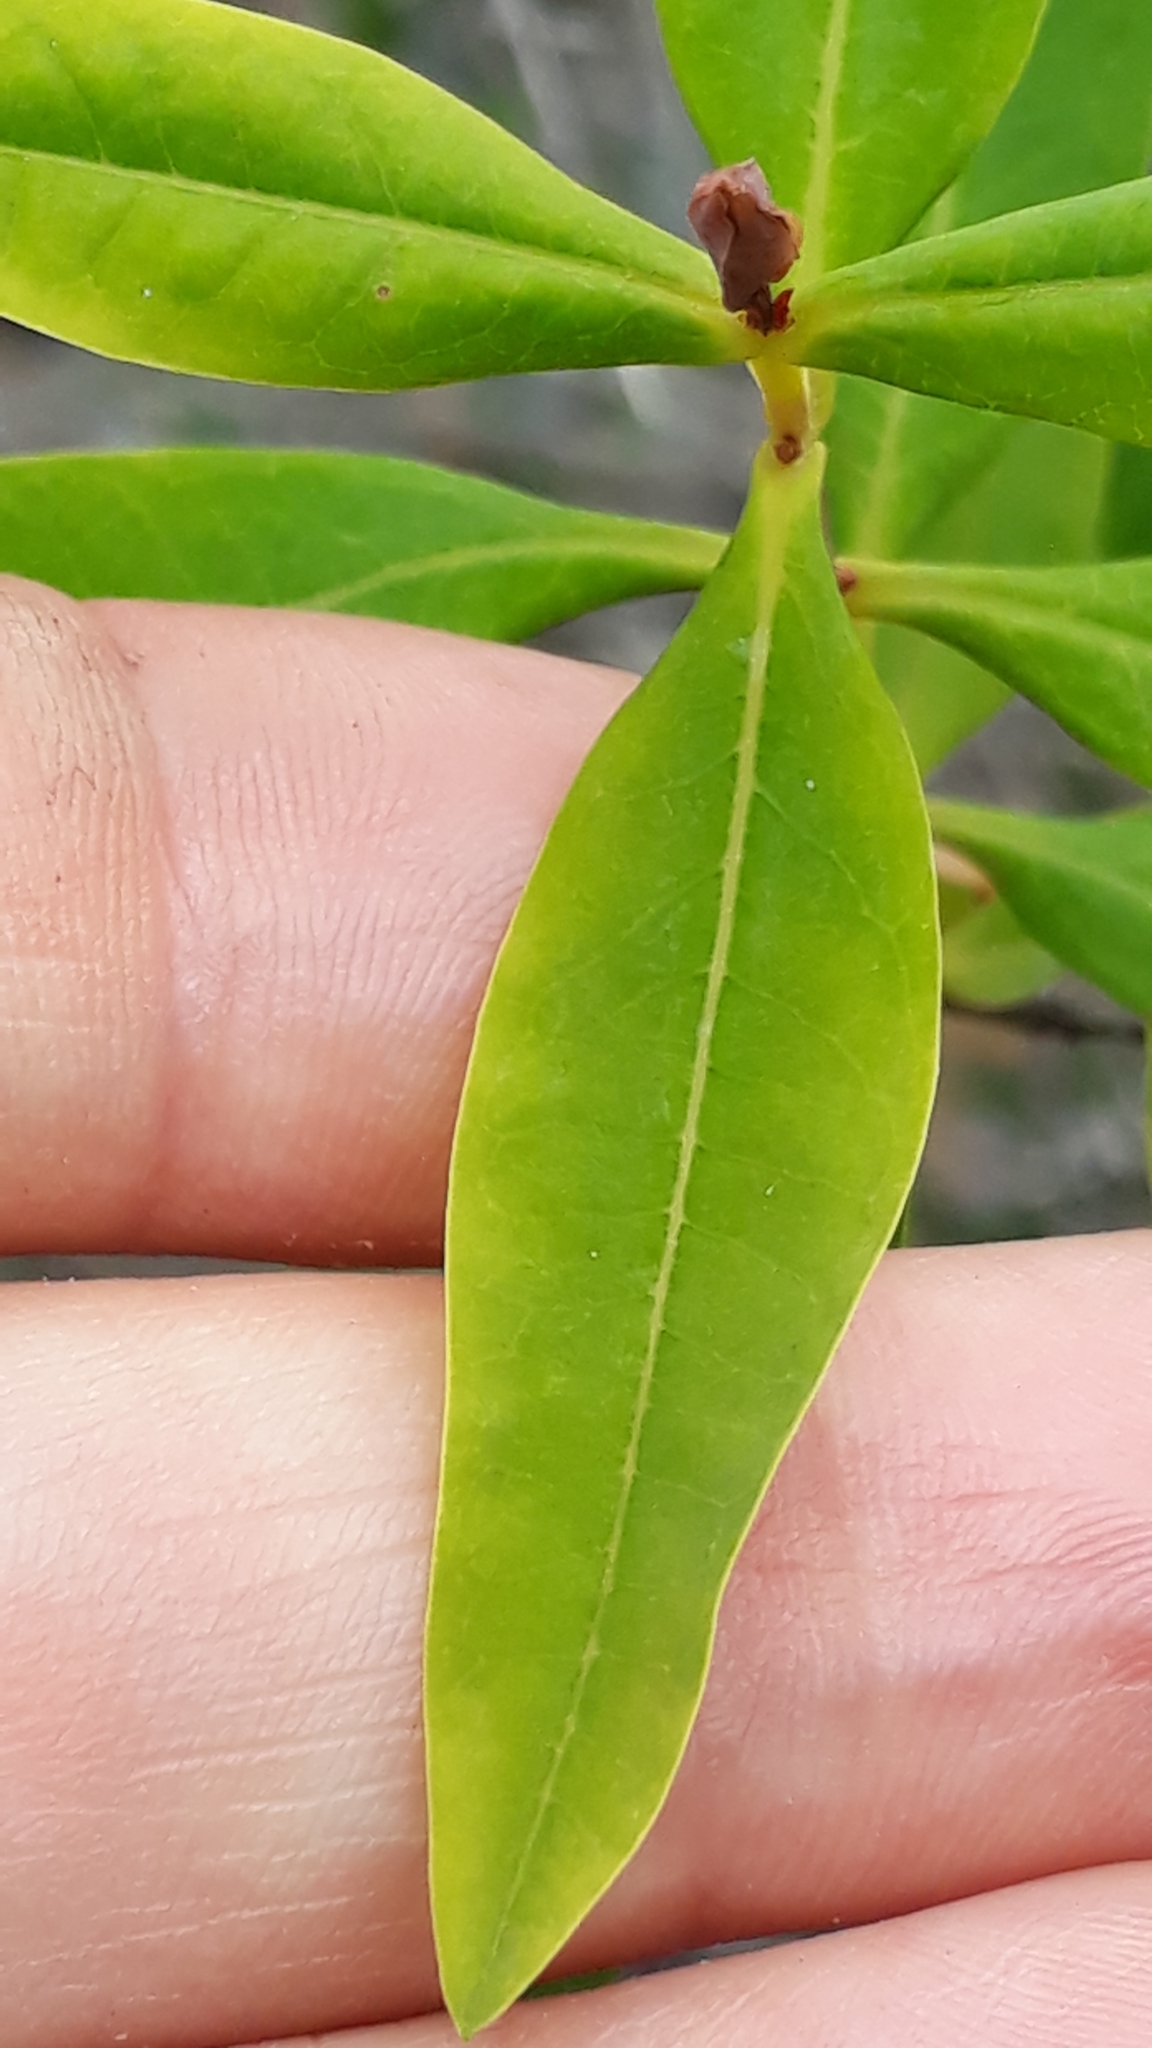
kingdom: Plantae
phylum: Tracheophyta
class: Magnoliopsida
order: Malpighiales
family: Hypericaceae
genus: Hypericum
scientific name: Hypericum canariense
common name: Canary island st. johnswort
